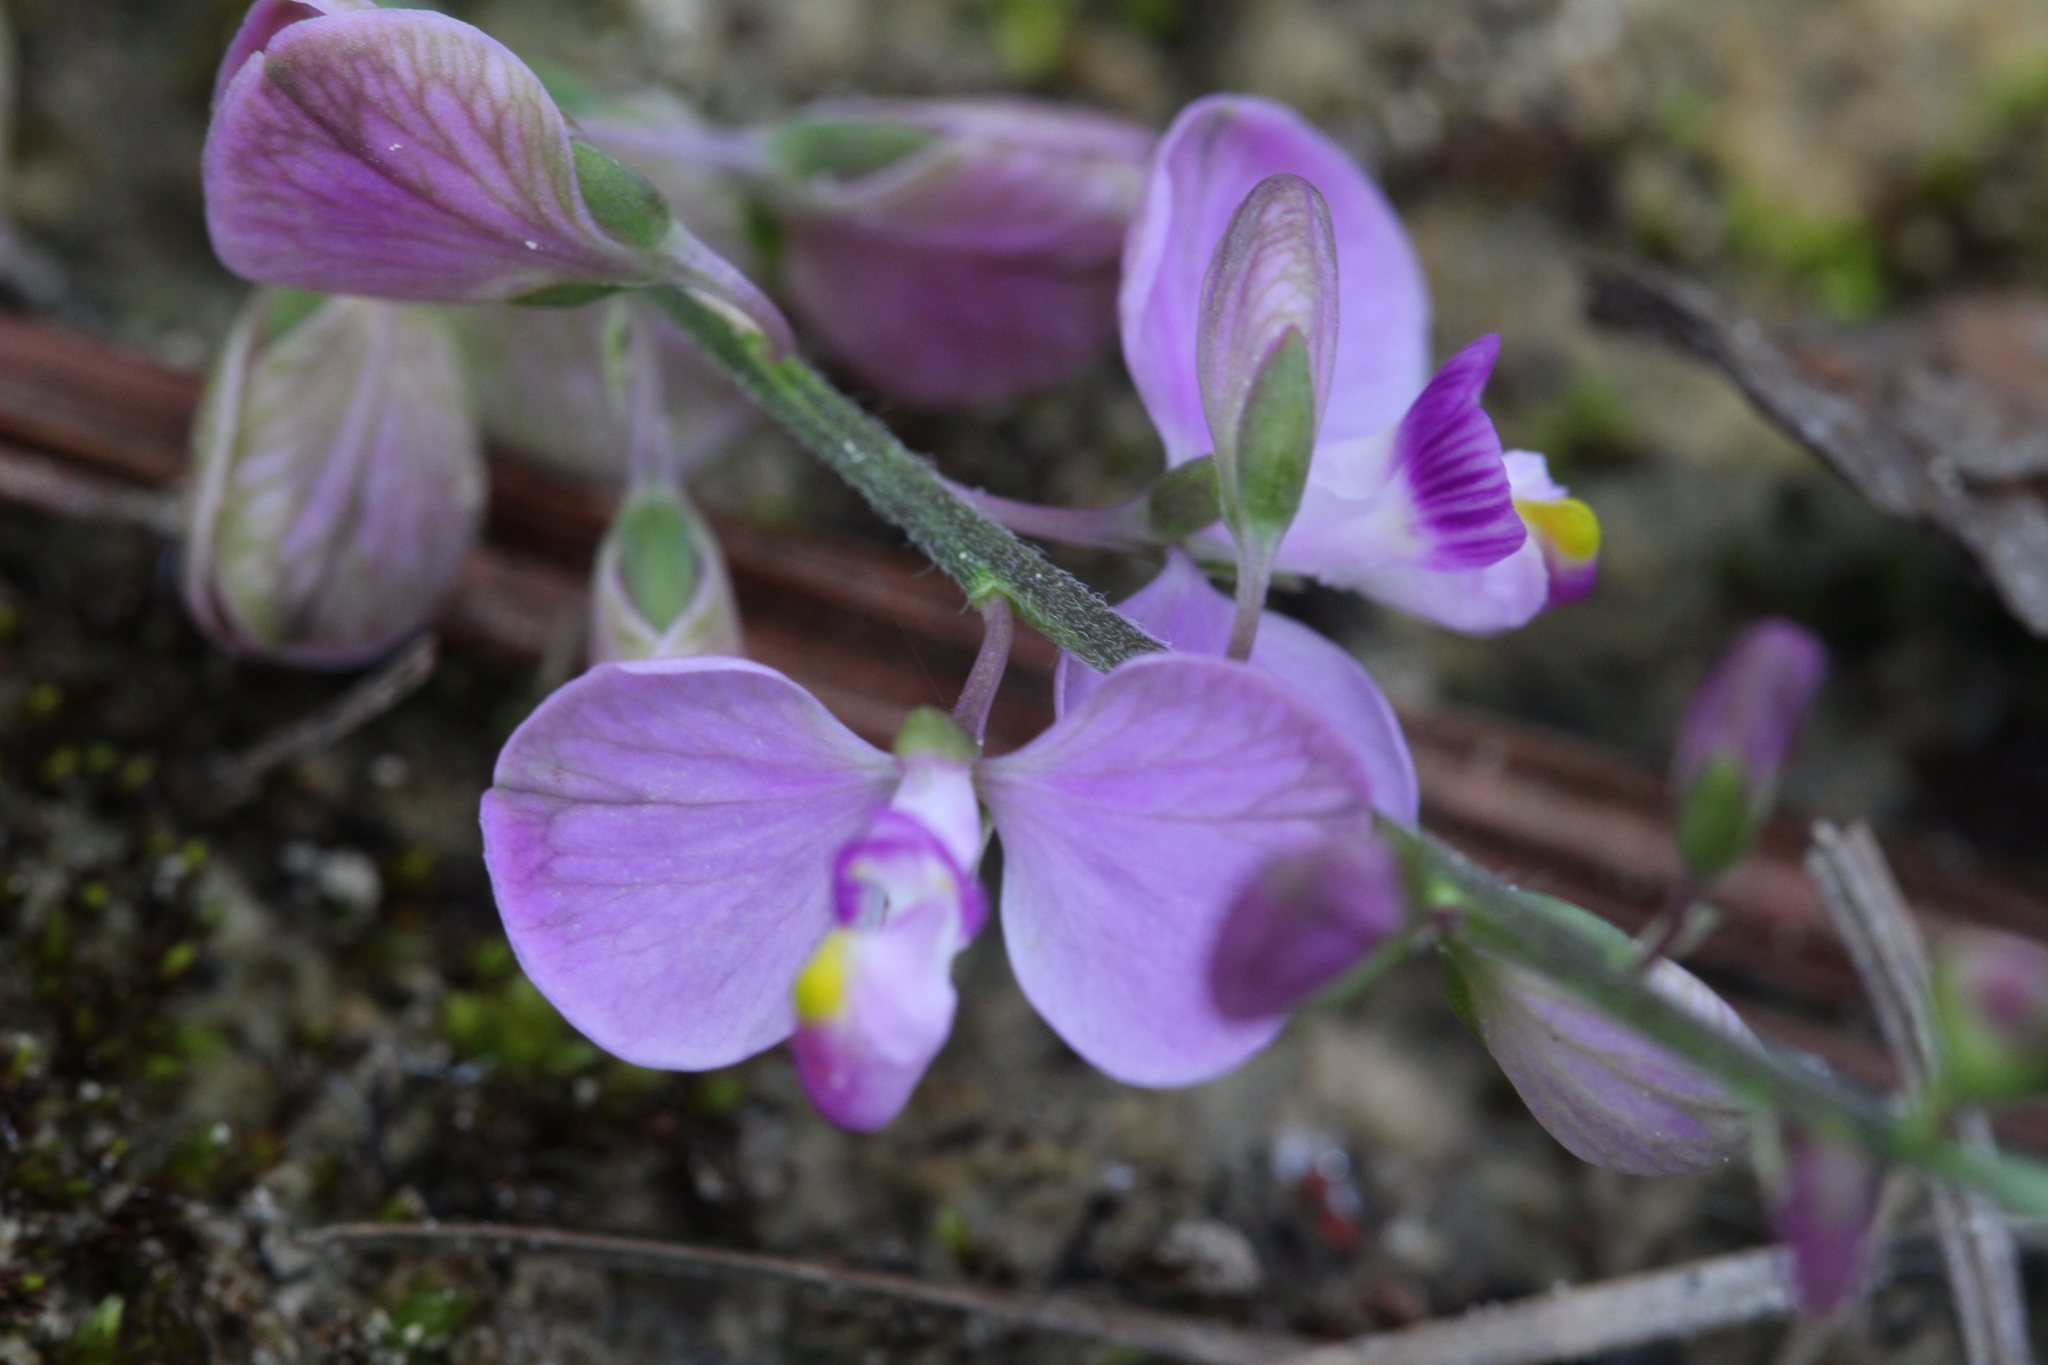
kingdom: Plantae
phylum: Tracheophyta
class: Magnoliopsida
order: Fabales
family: Polygalaceae
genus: Asemeia
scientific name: Asemeia grandiflora
